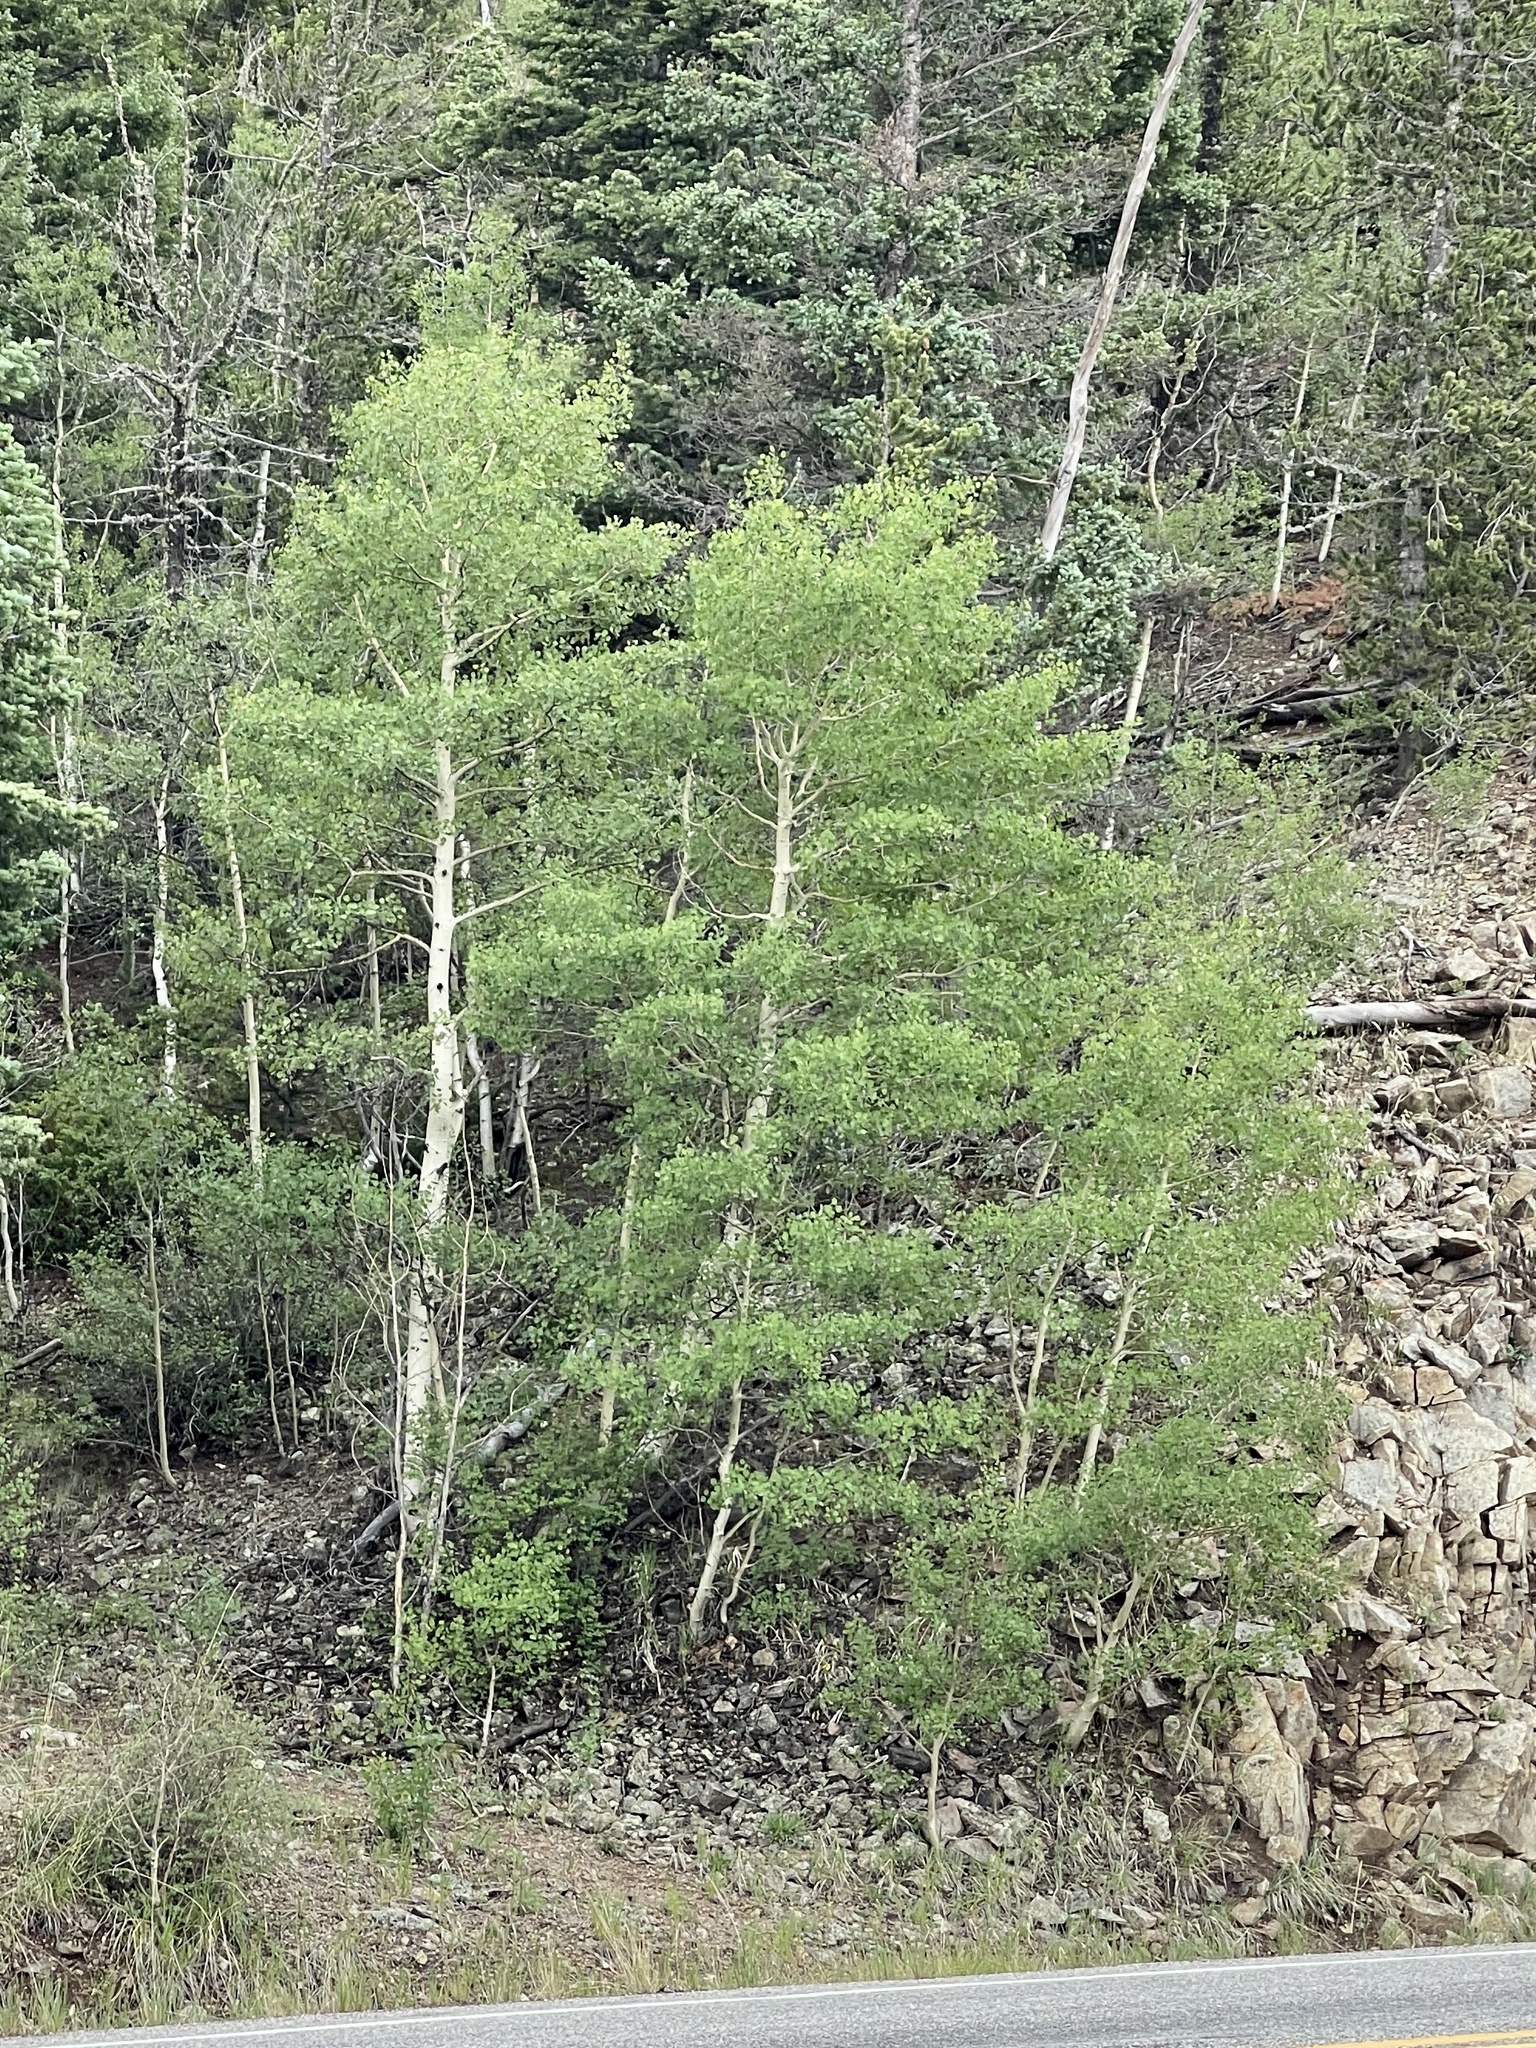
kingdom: Plantae
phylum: Tracheophyta
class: Magnoliopsida
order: Malpighiales
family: Salicaceae
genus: Populus
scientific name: Populus tremuloides
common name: Quaking aspen
